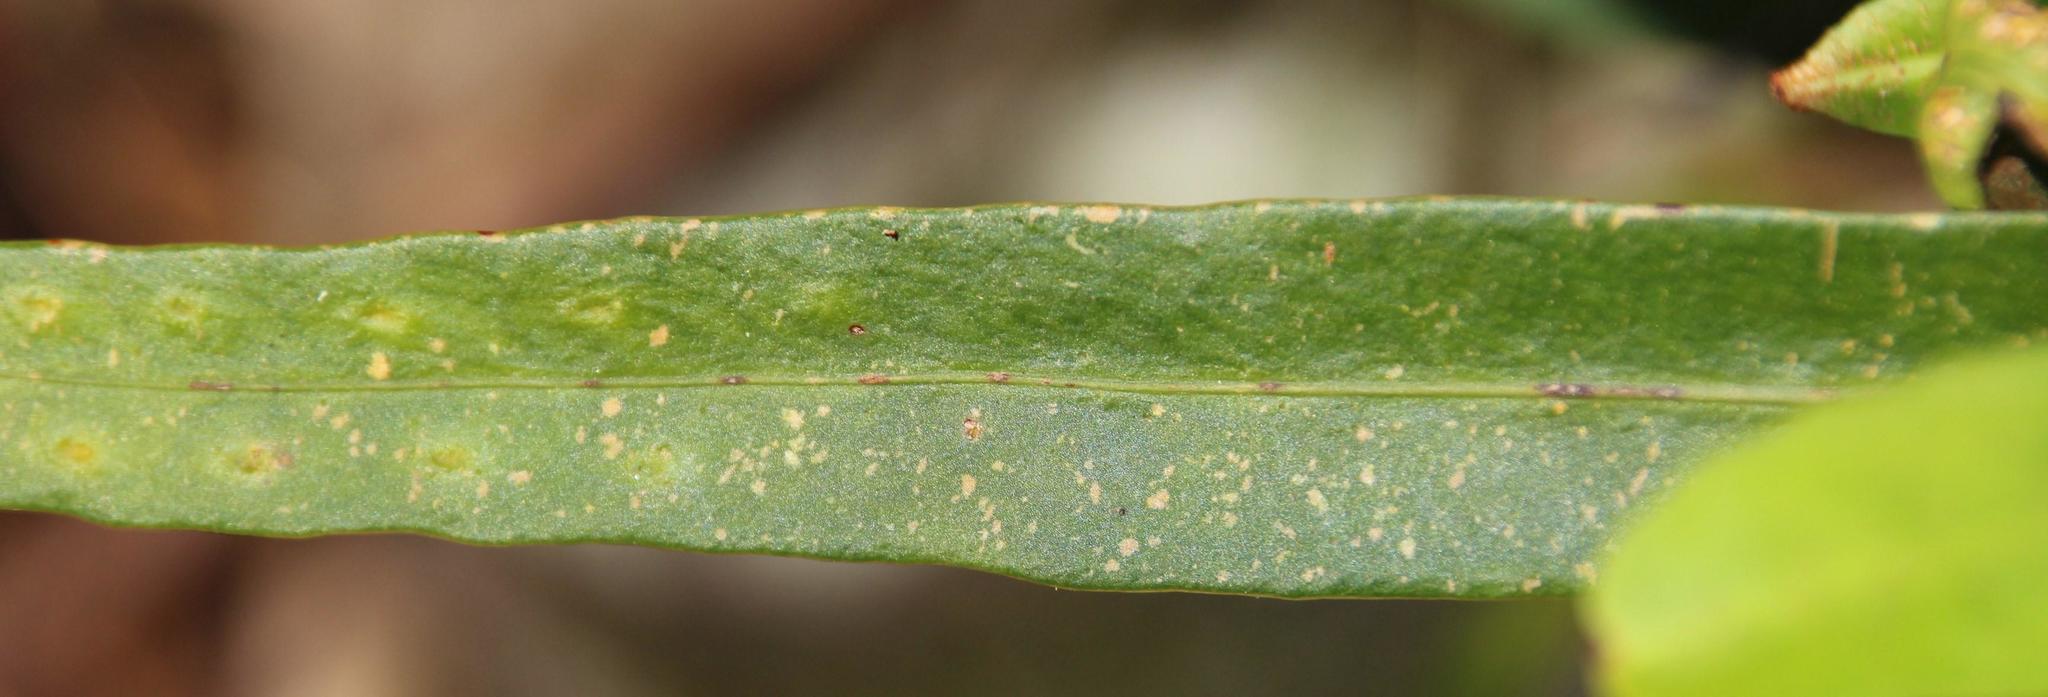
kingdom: Plantae
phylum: Tracheophyta
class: Polypodiopsida
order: Polypodiales
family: Polypodiaceae
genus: Pleopeltis
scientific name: Pleopeltis macrocarpa
